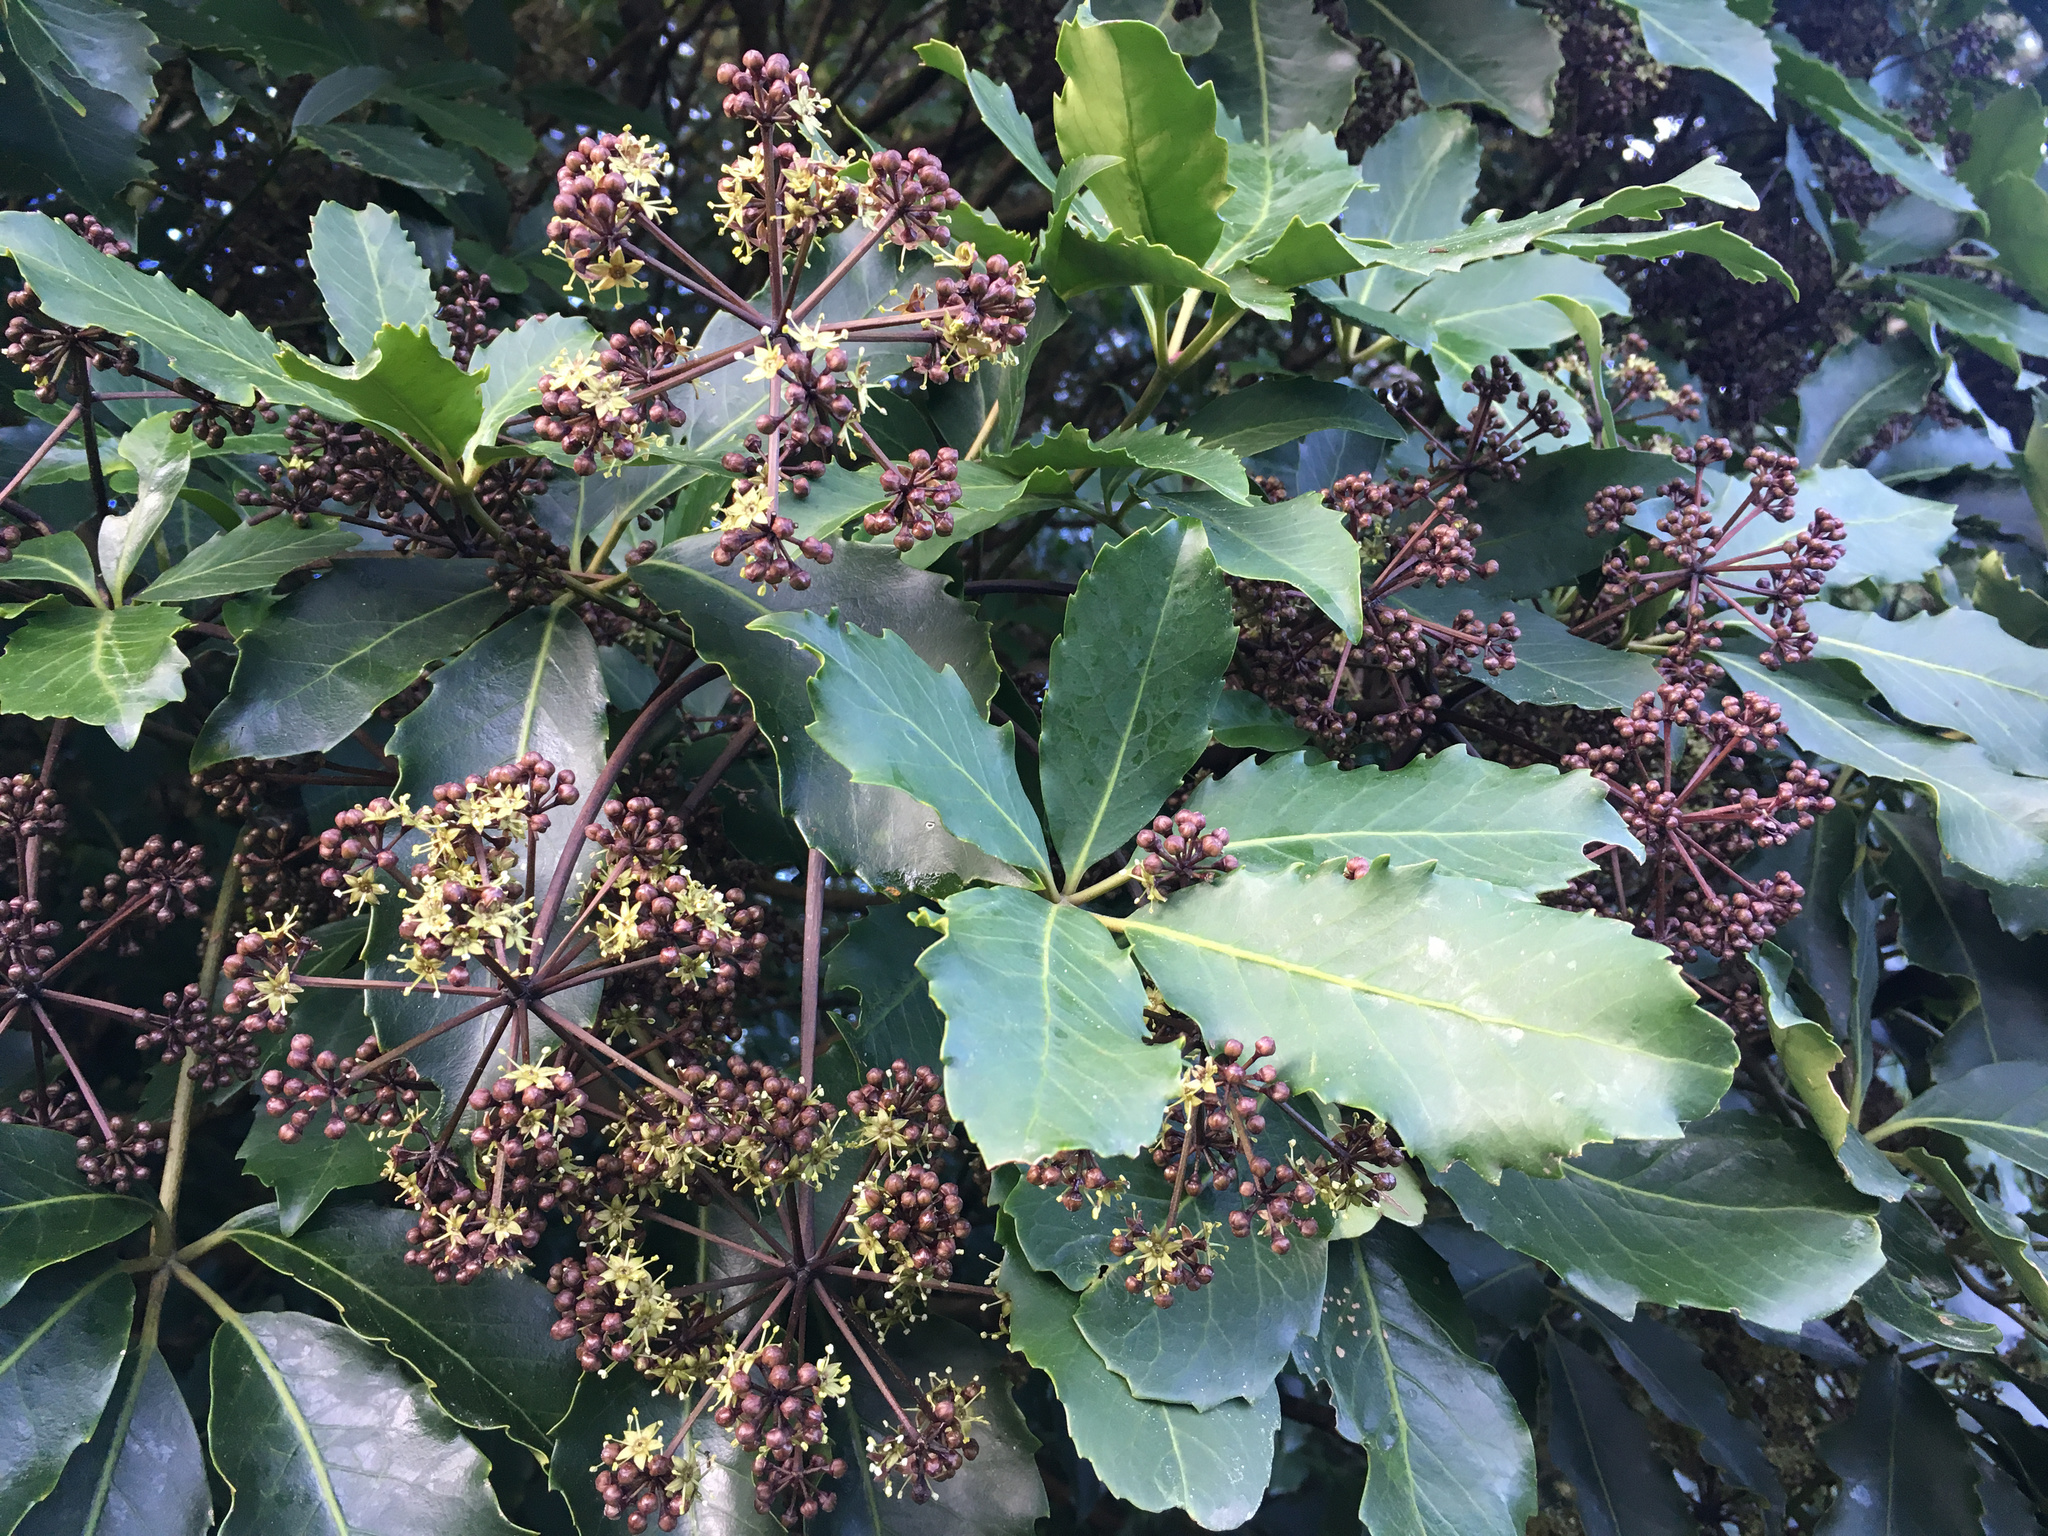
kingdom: Plantae
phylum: Tracheophyta
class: Magnoliopsida
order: Apiales
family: Araliaceae
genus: Neopanax
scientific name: Neopanax arboreus
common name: Five-fingers
